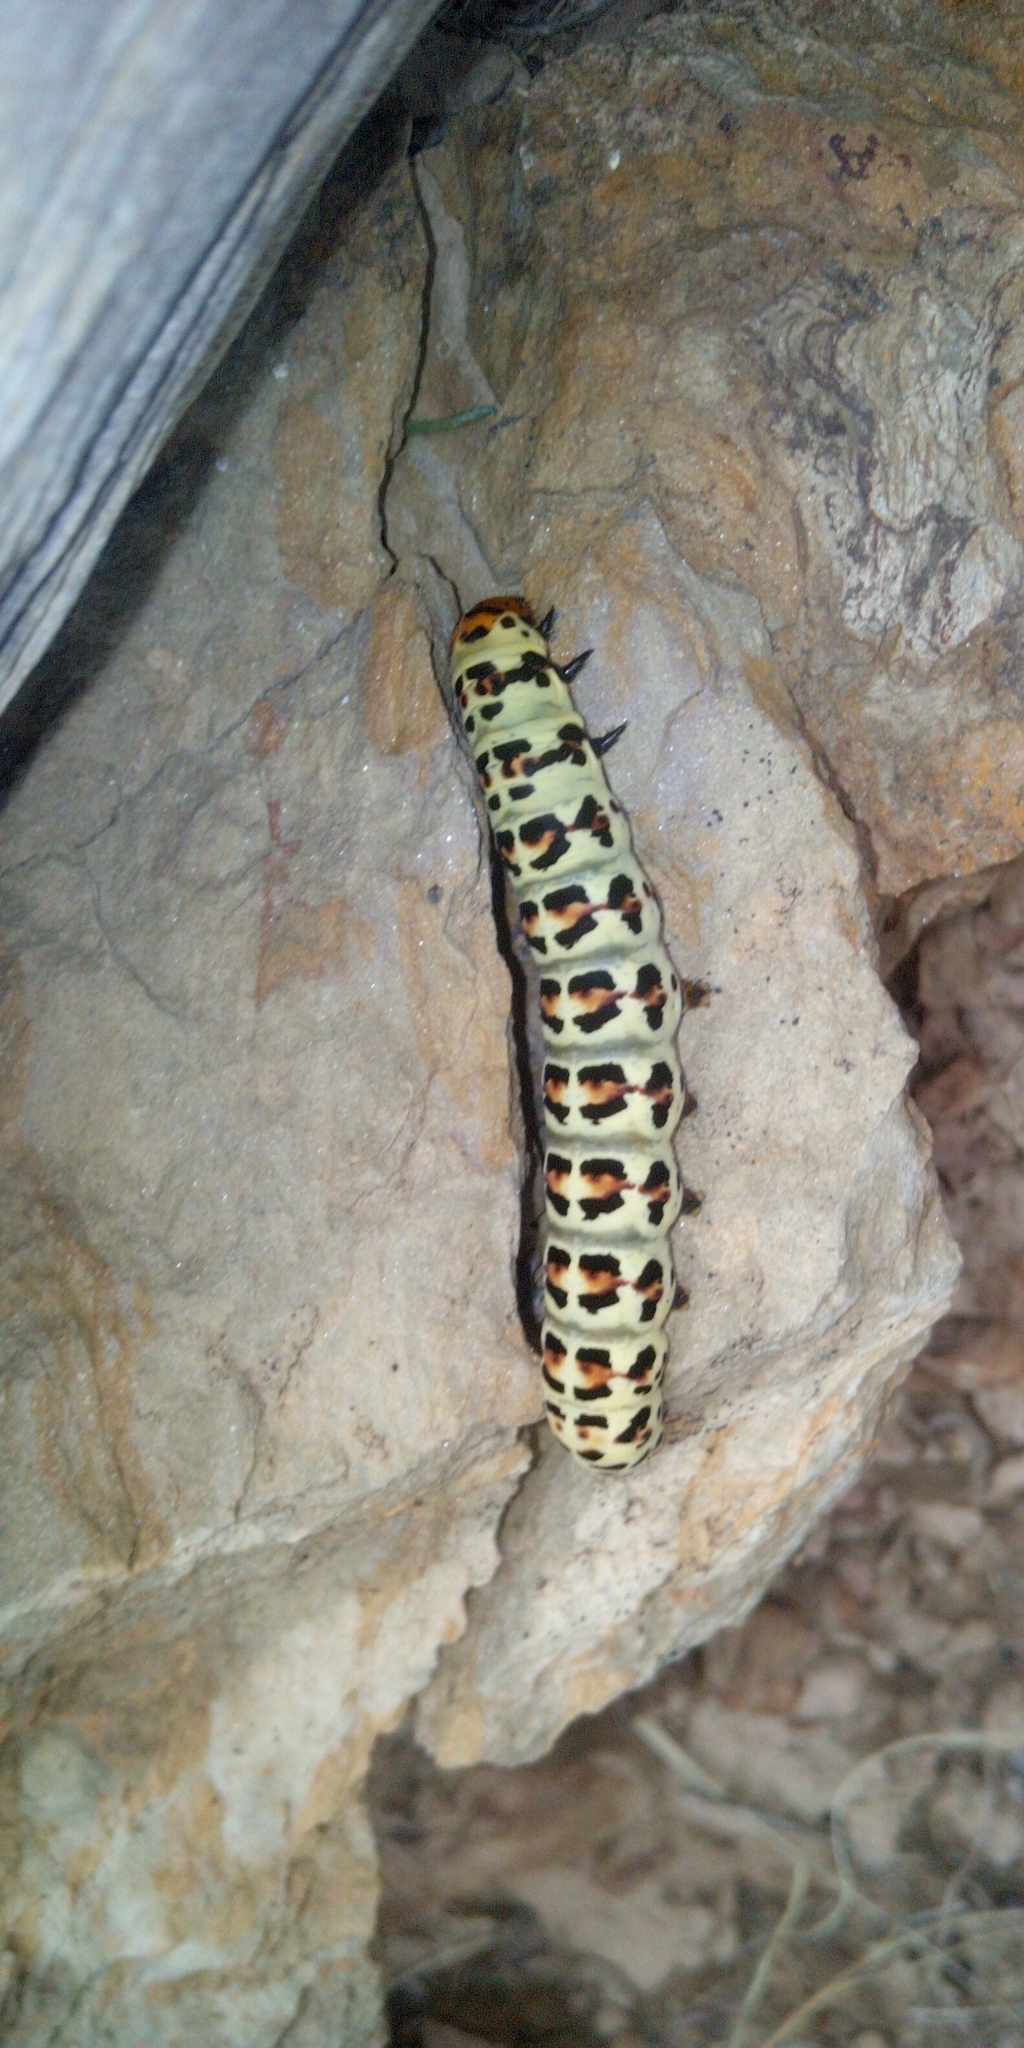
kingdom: Animalia
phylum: Arthropoda
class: Insecta
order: Lepidoptera
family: Noctuidae
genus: Diaphone
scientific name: Diaphone eumela
